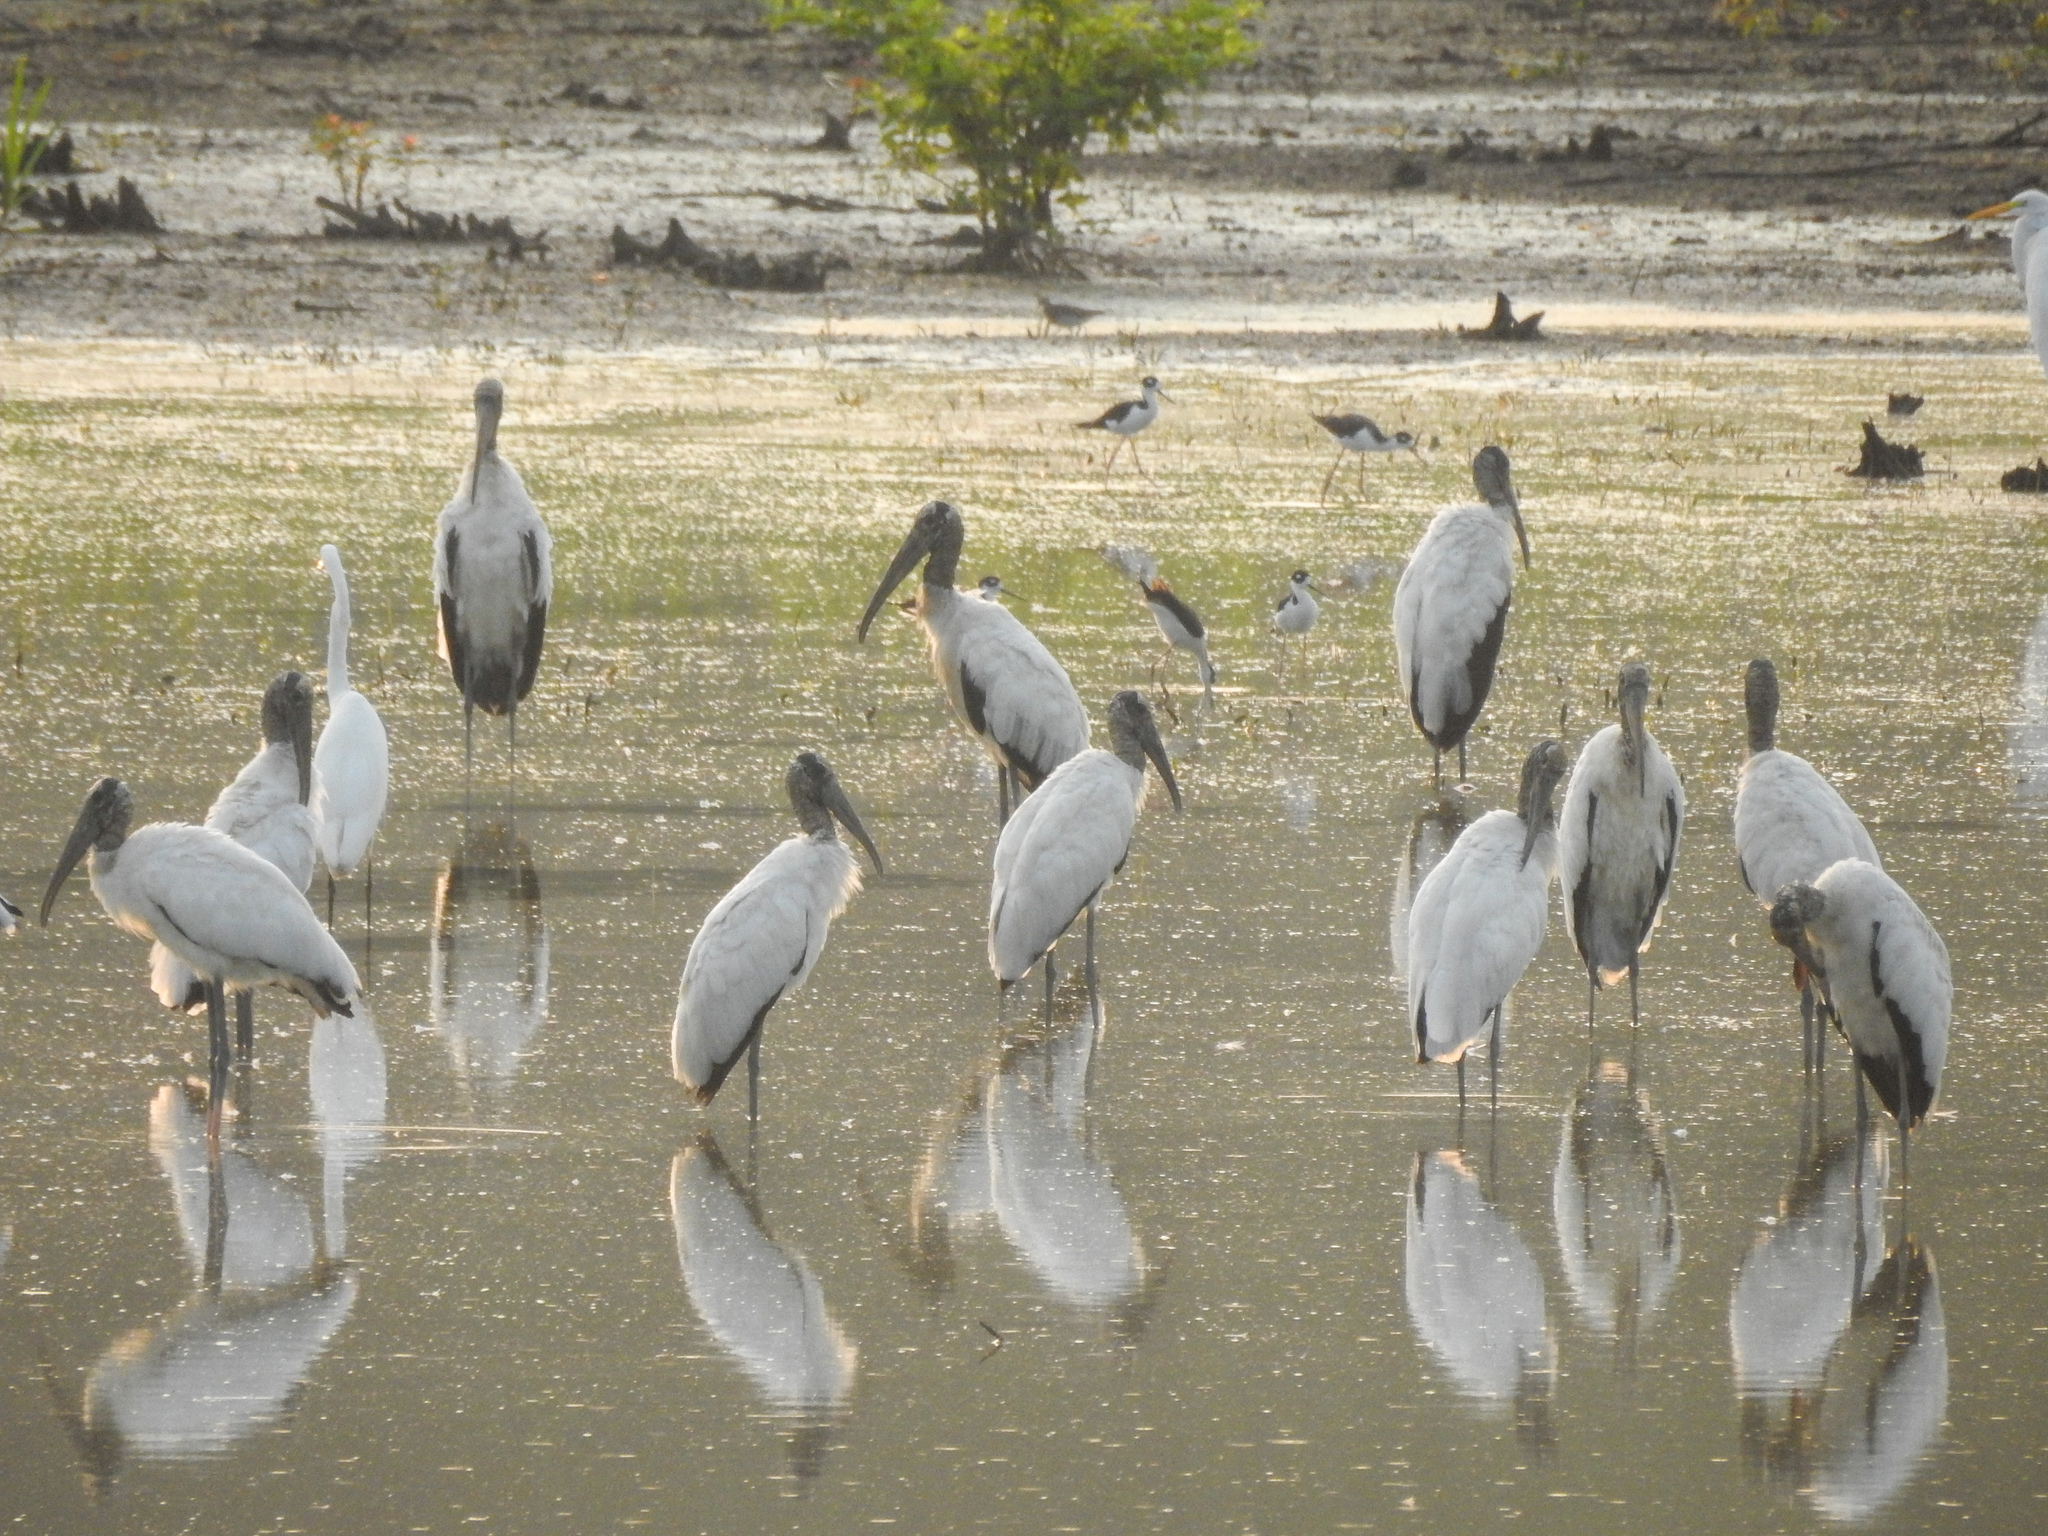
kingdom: Animalia
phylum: Chordata
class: Aves
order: Ciconiiformes
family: Ciconiidae
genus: Mycteria
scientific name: Mycteria americana
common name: Wood stork
